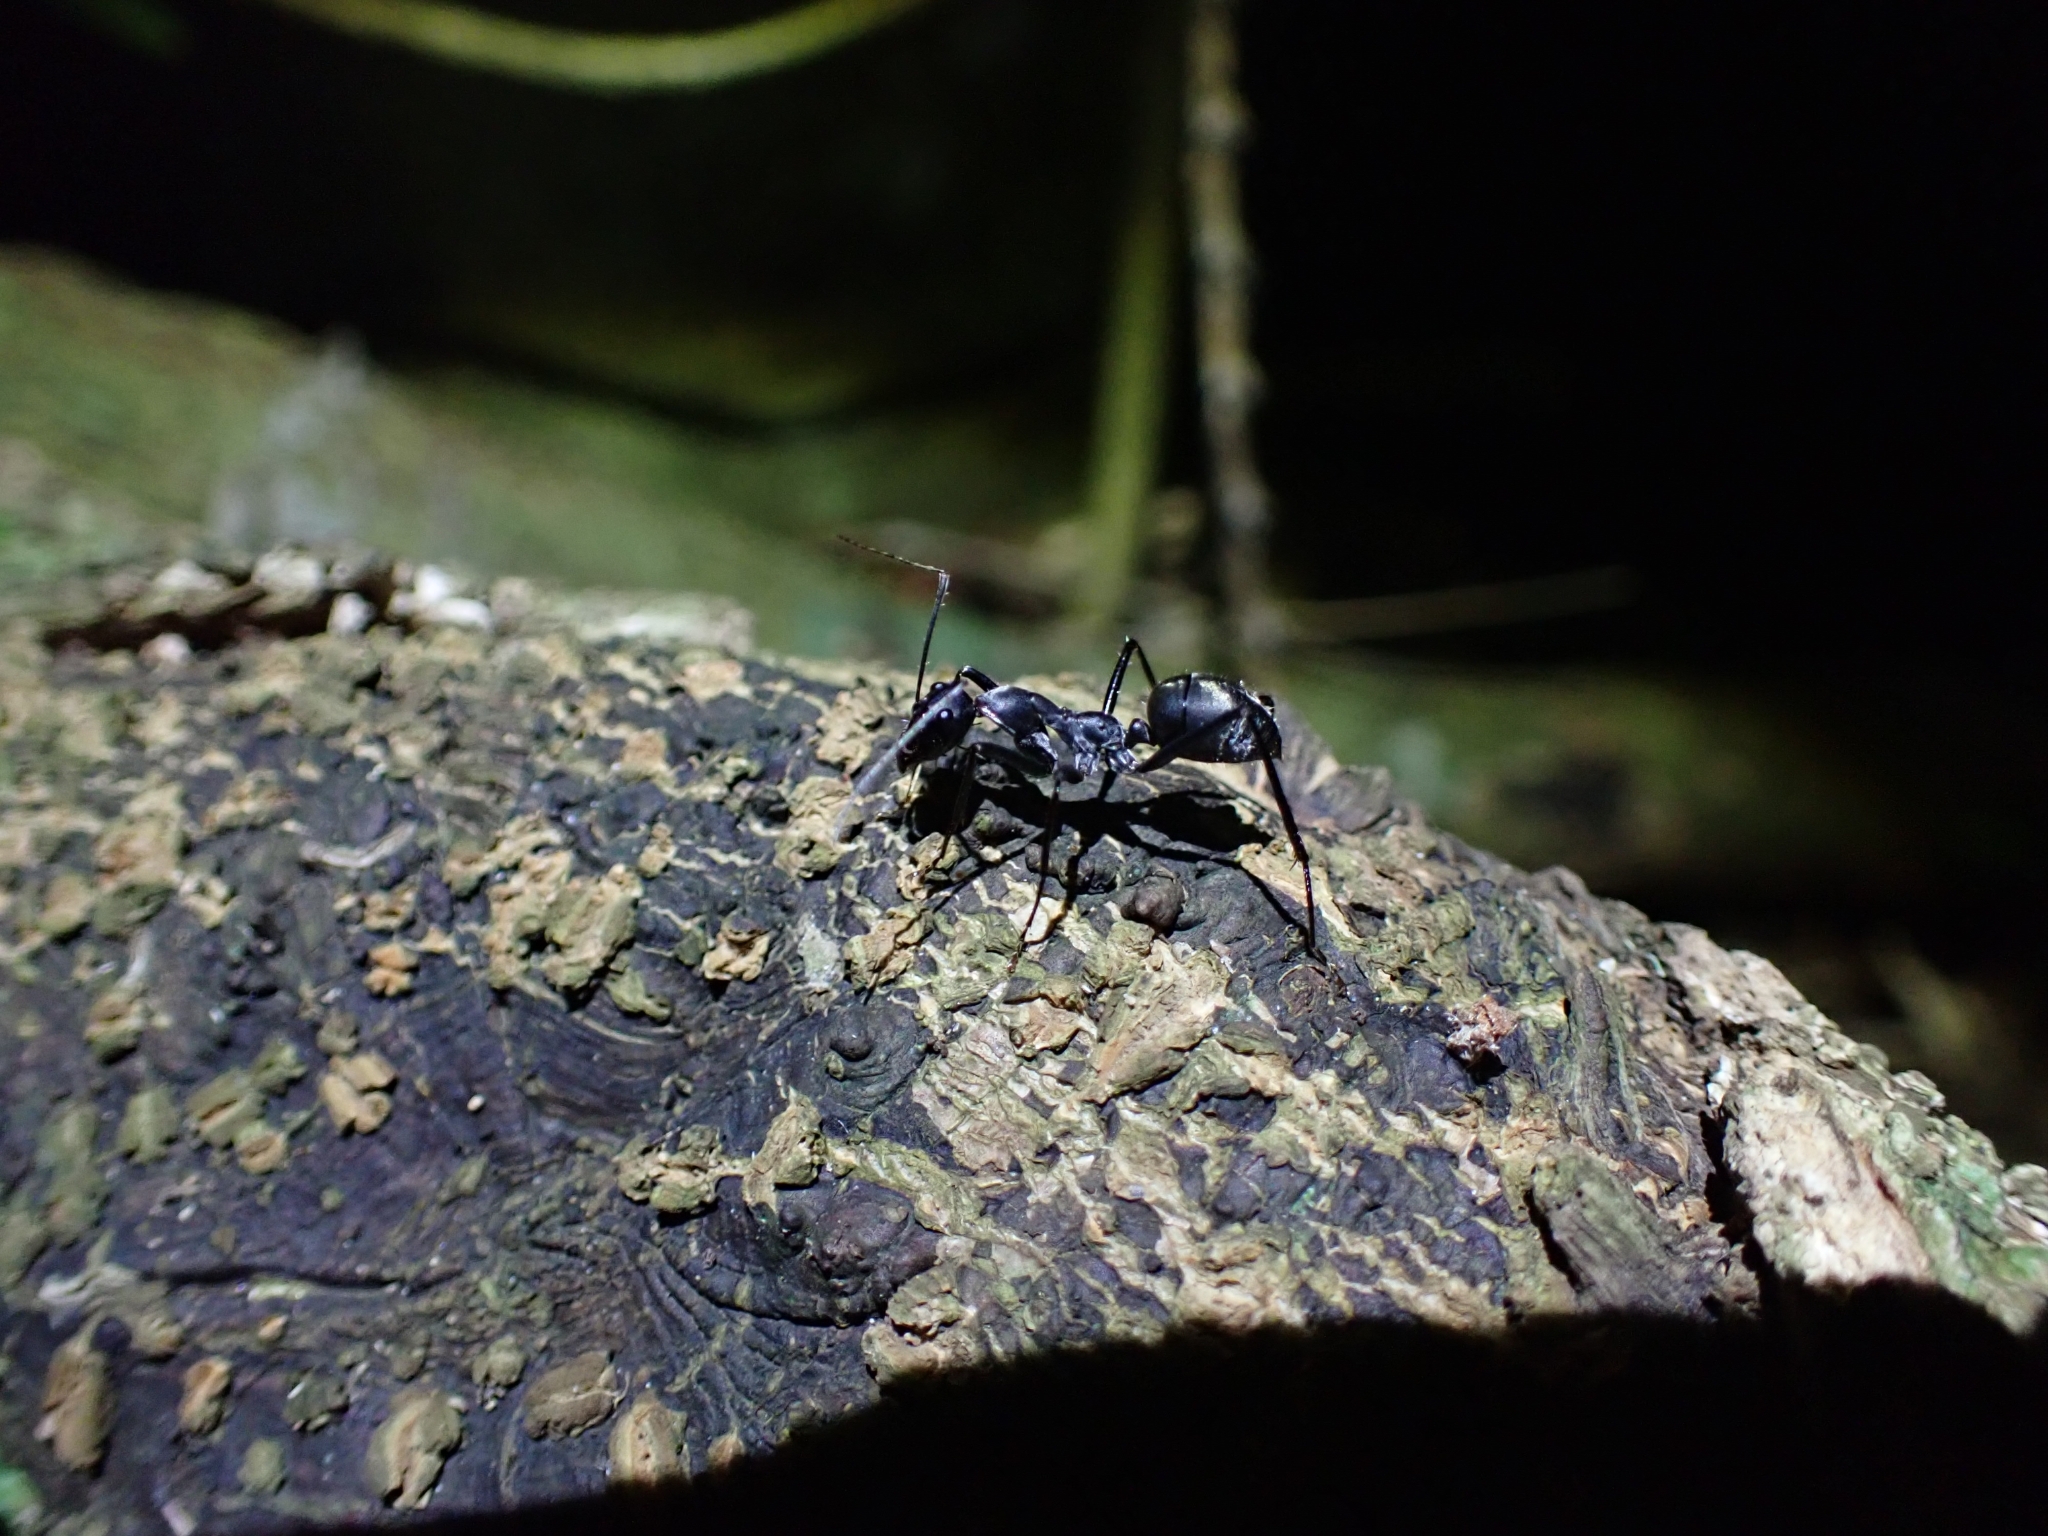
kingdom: Animalia
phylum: Arthropoda
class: Insecta
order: Hymenoptera
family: Formicidae
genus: Notostigma
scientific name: Notostigma carazzii
